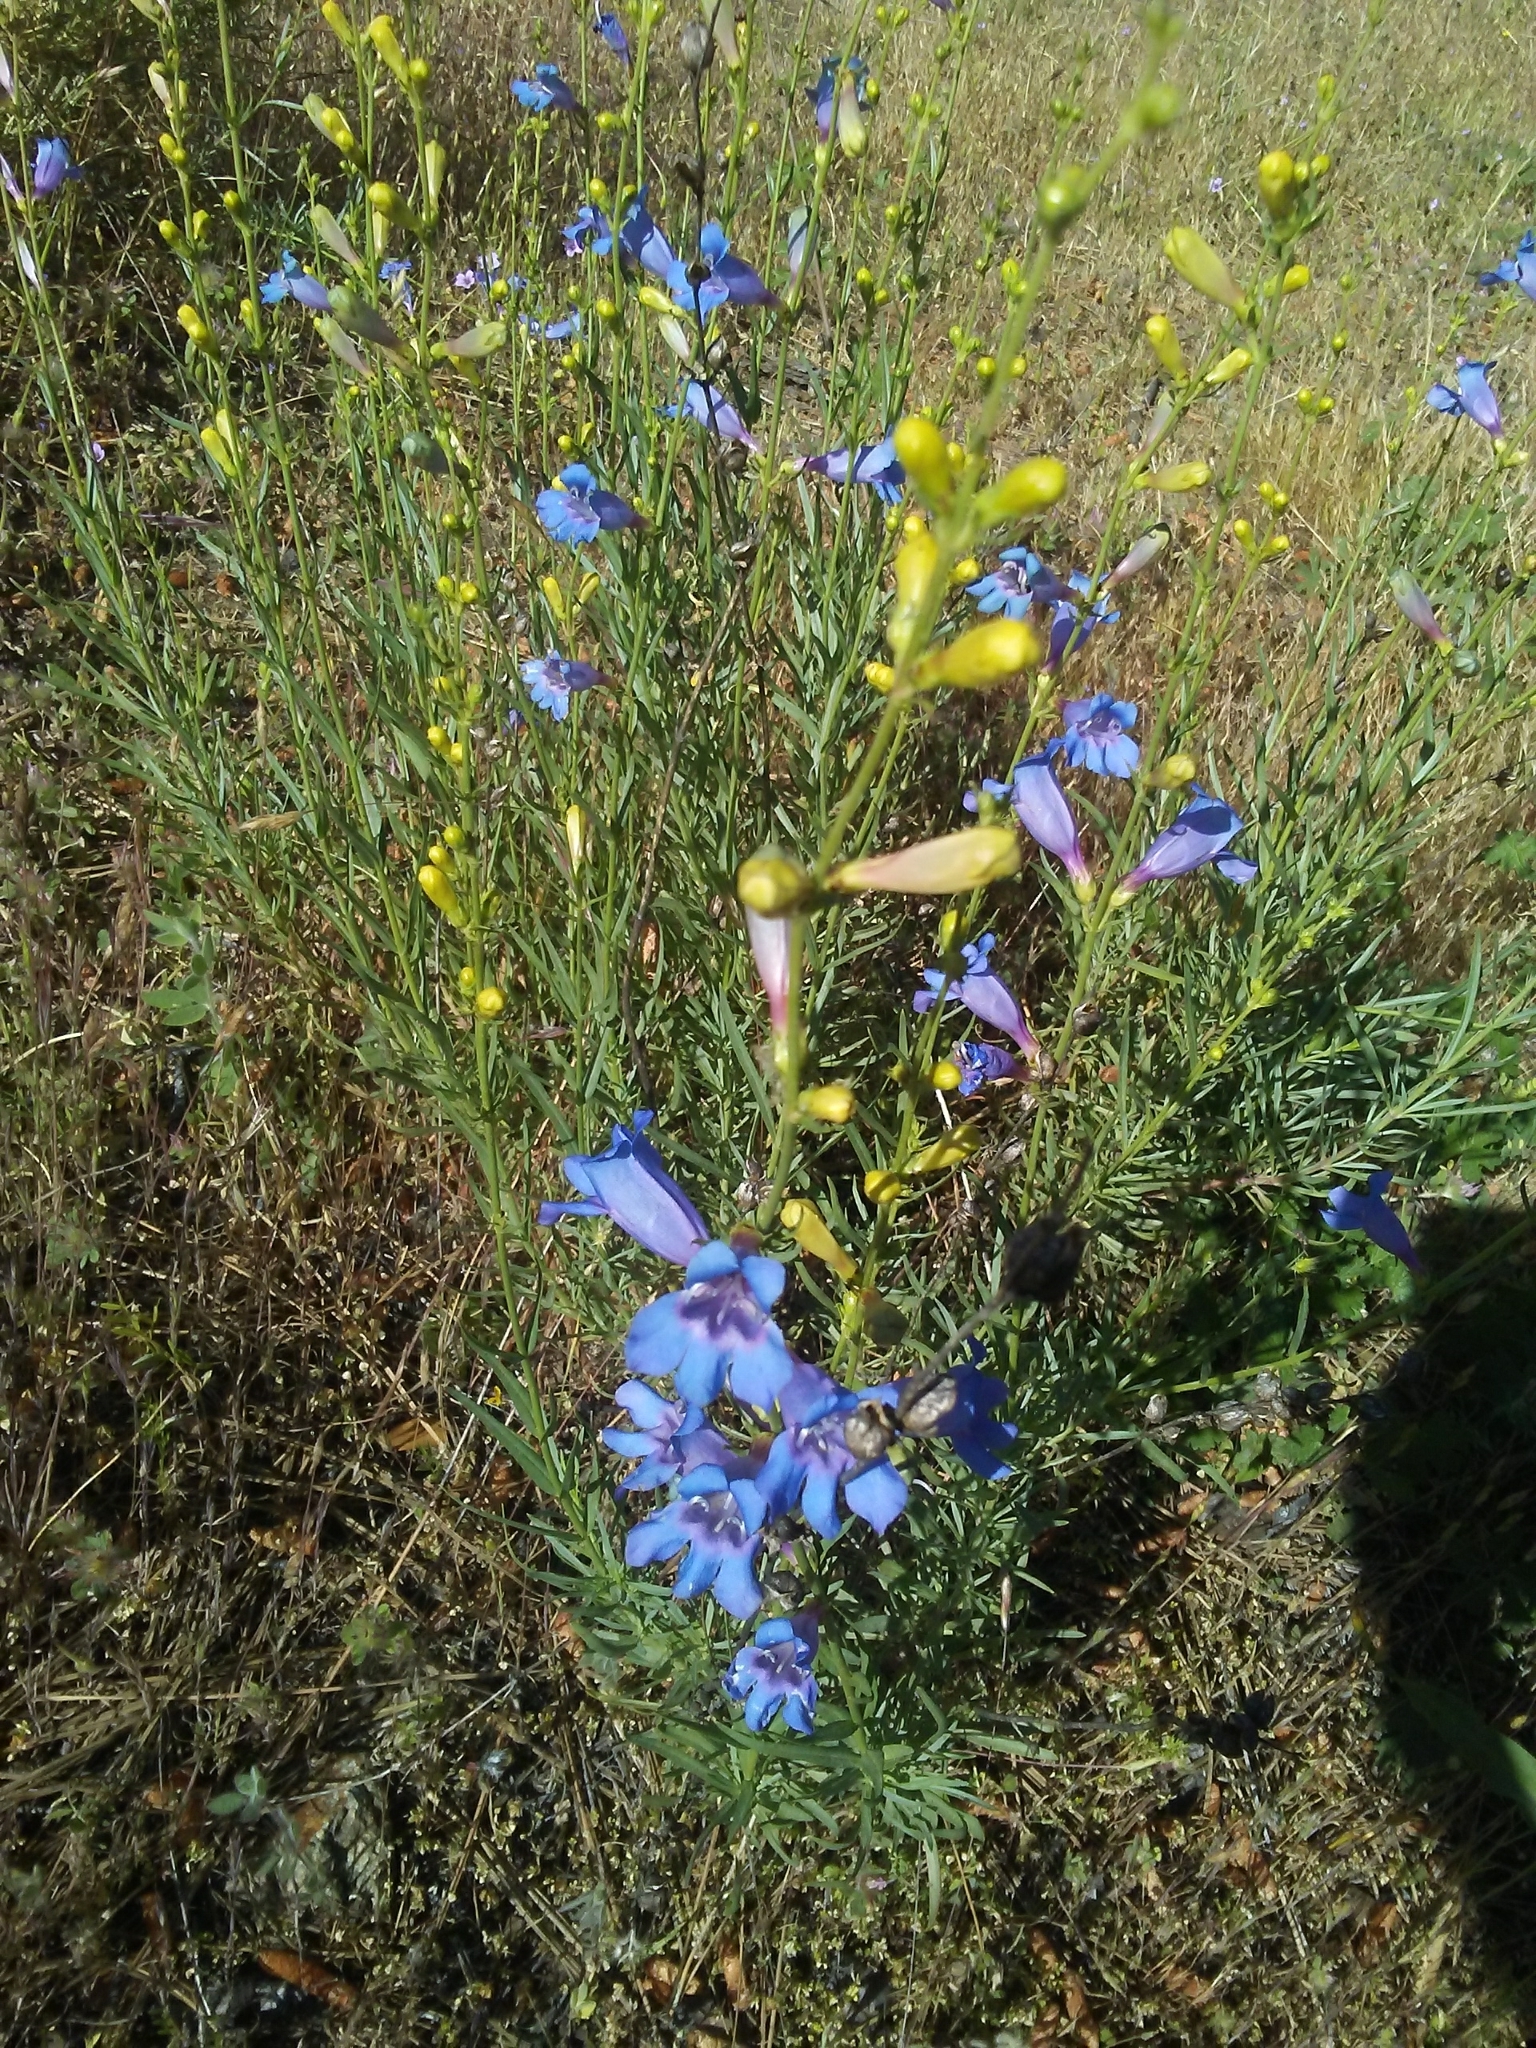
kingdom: Plantae
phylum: Tracheophyta
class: Magnoliopsida
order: Lamiales
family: Plantaginaceae
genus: Penstemon
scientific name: Penstemon heterophyllus
